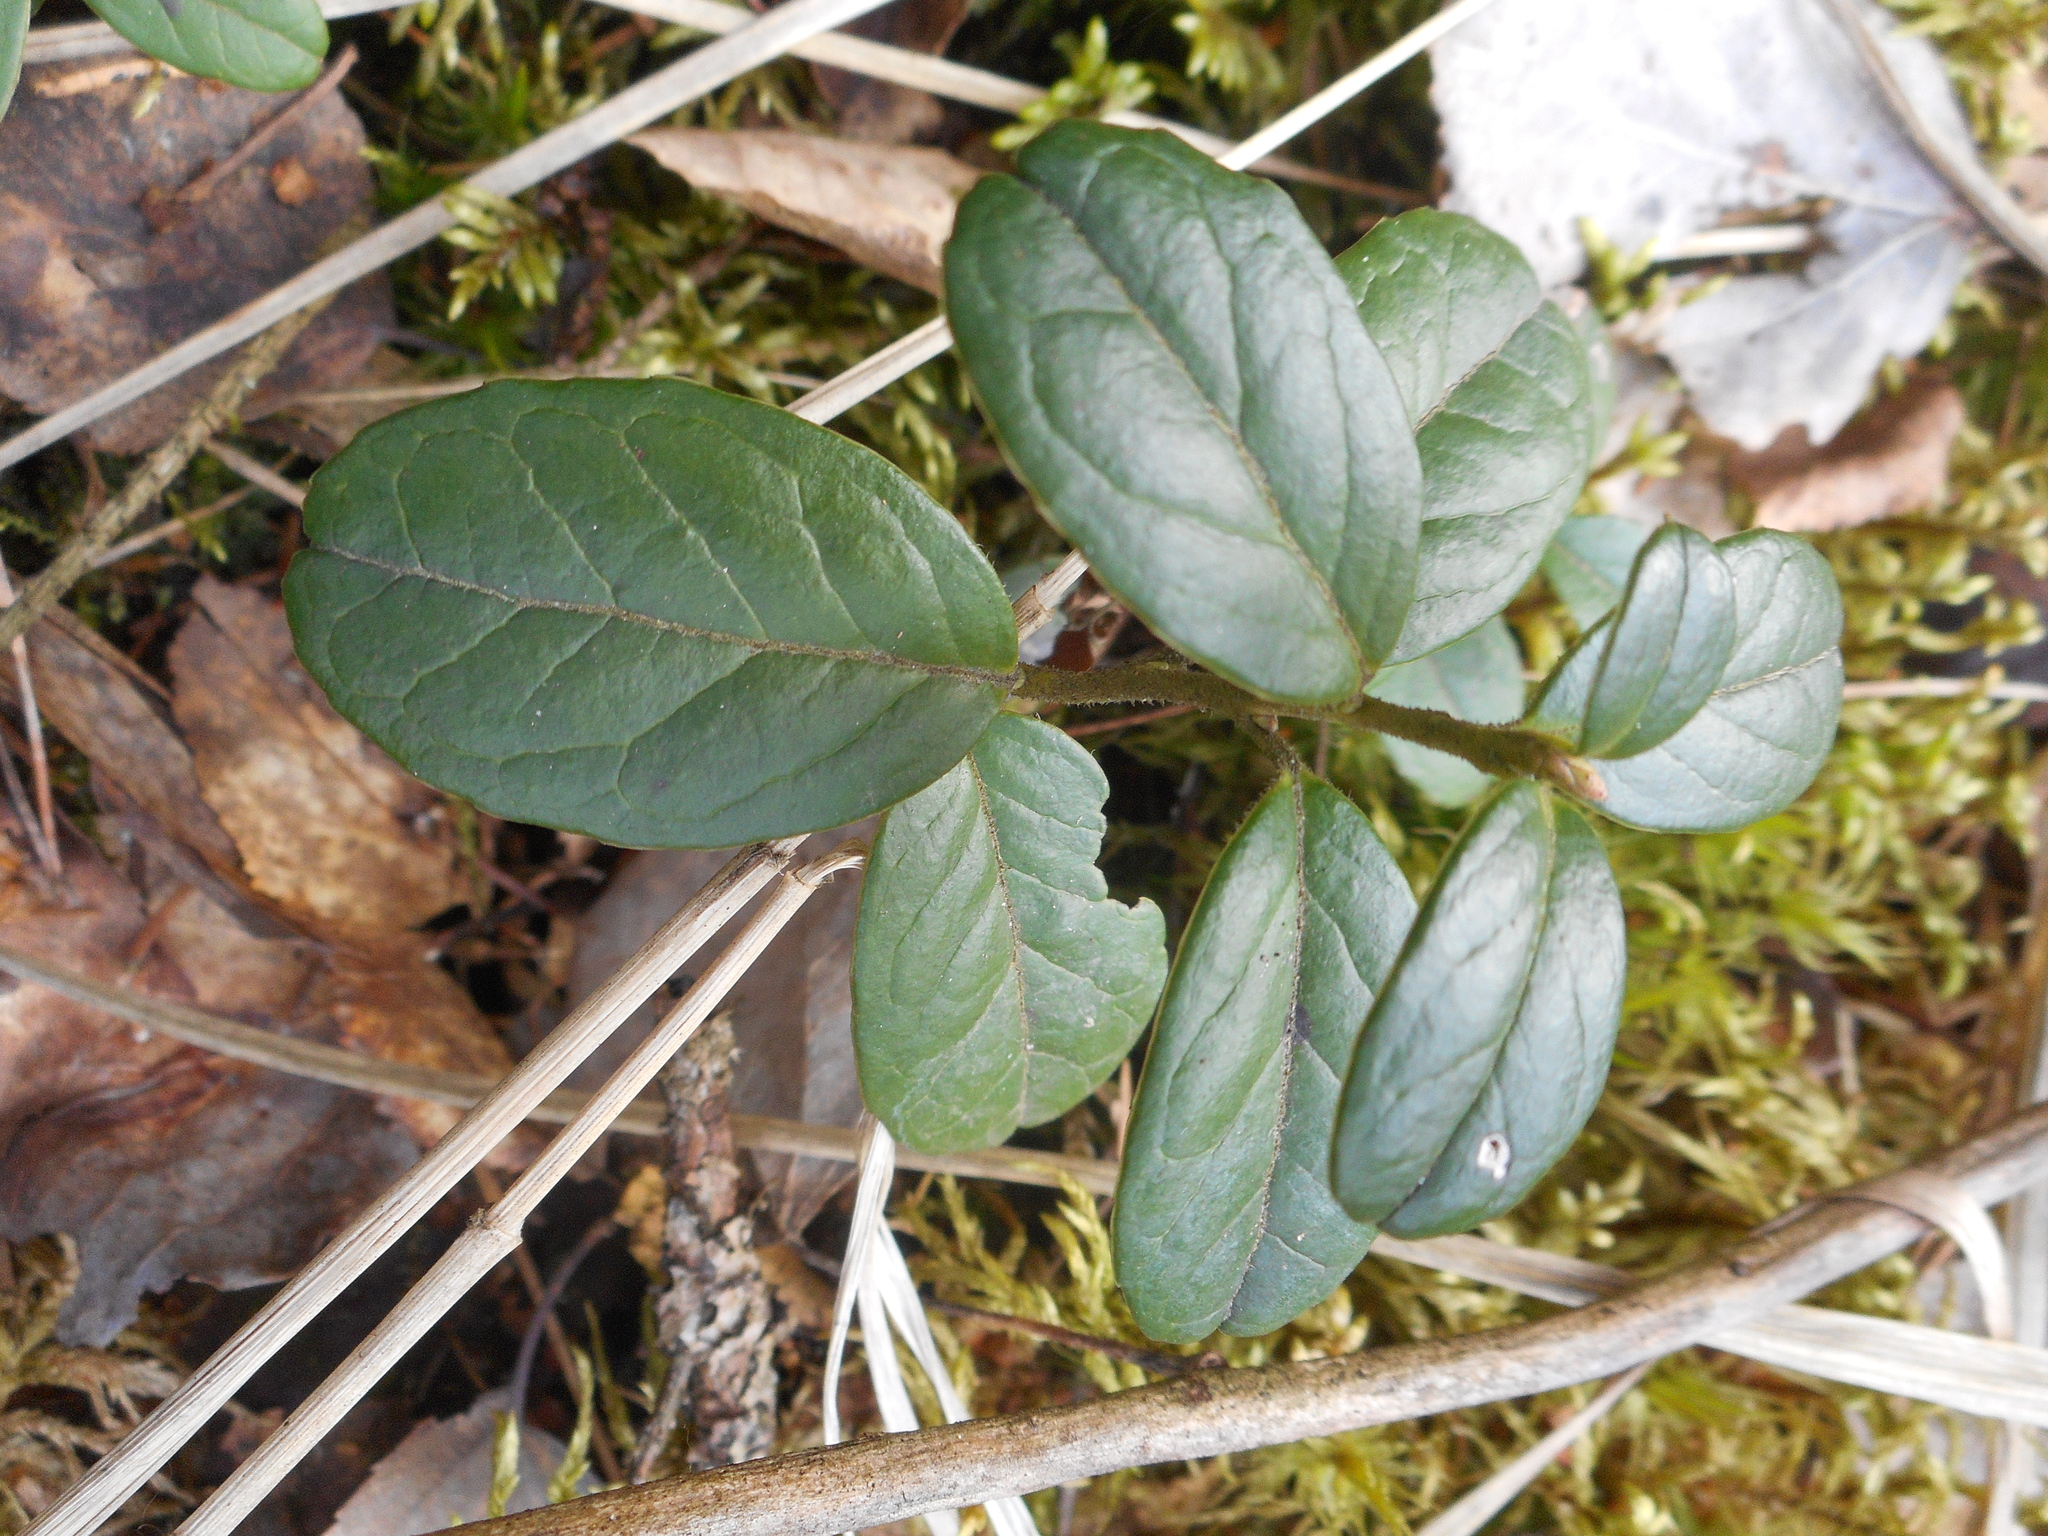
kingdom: Plantae
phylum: Tracheophyta
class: Magnoliopsida
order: Ericales
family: Ericaceae
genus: Vaccinium
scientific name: Vaccinium vitis-idaea
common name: Cowberry
